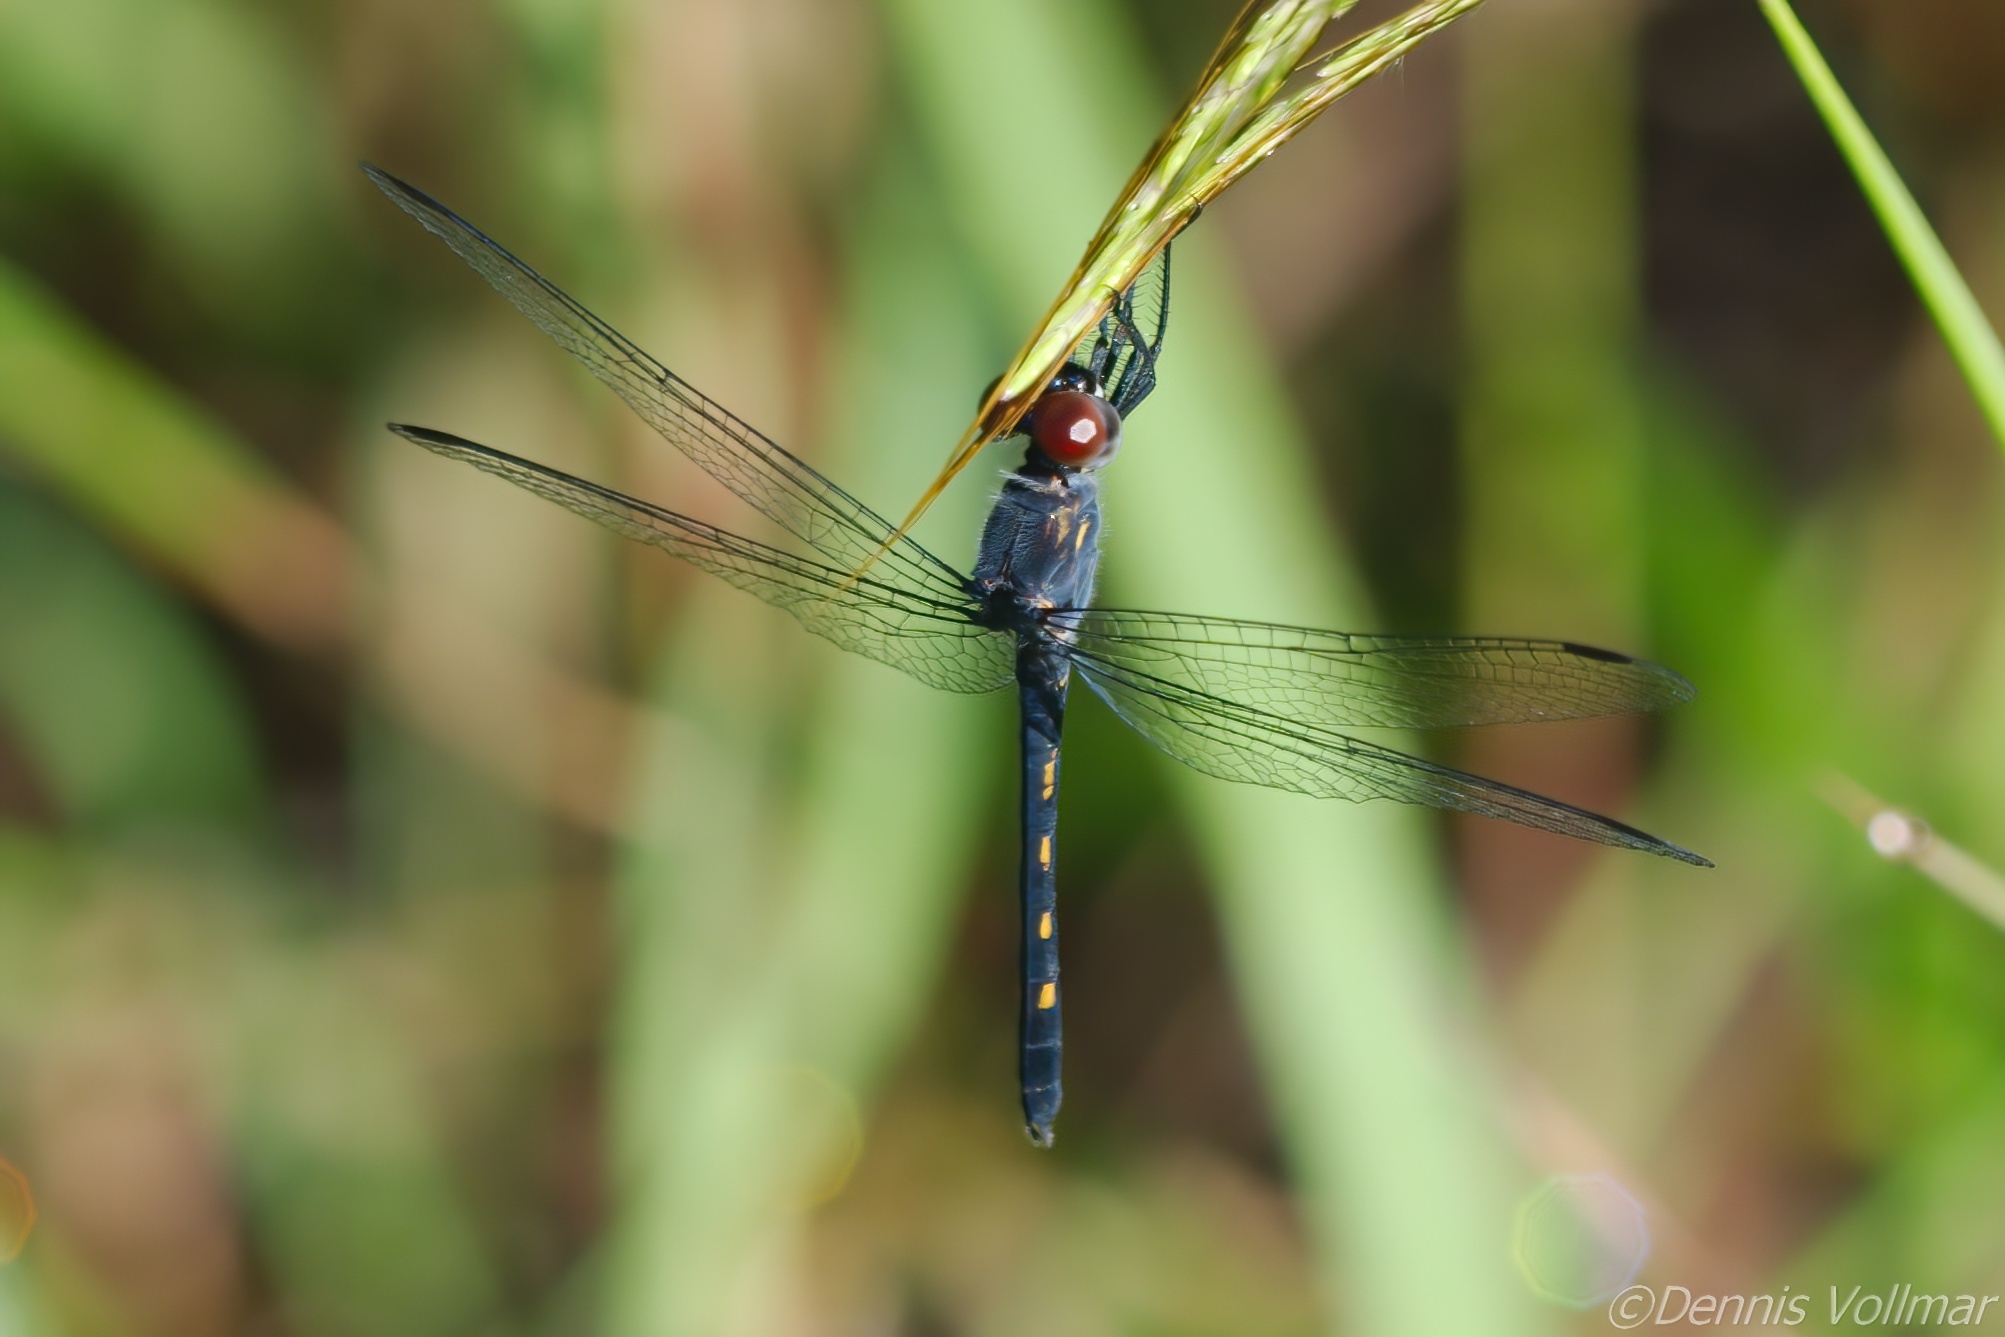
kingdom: Animalia
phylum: Arthropoda
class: Insecta
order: Odonata
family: Libellulidae
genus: Erythrodiplax
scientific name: Erythrodiplax berenice
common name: Seaside dragonlet
